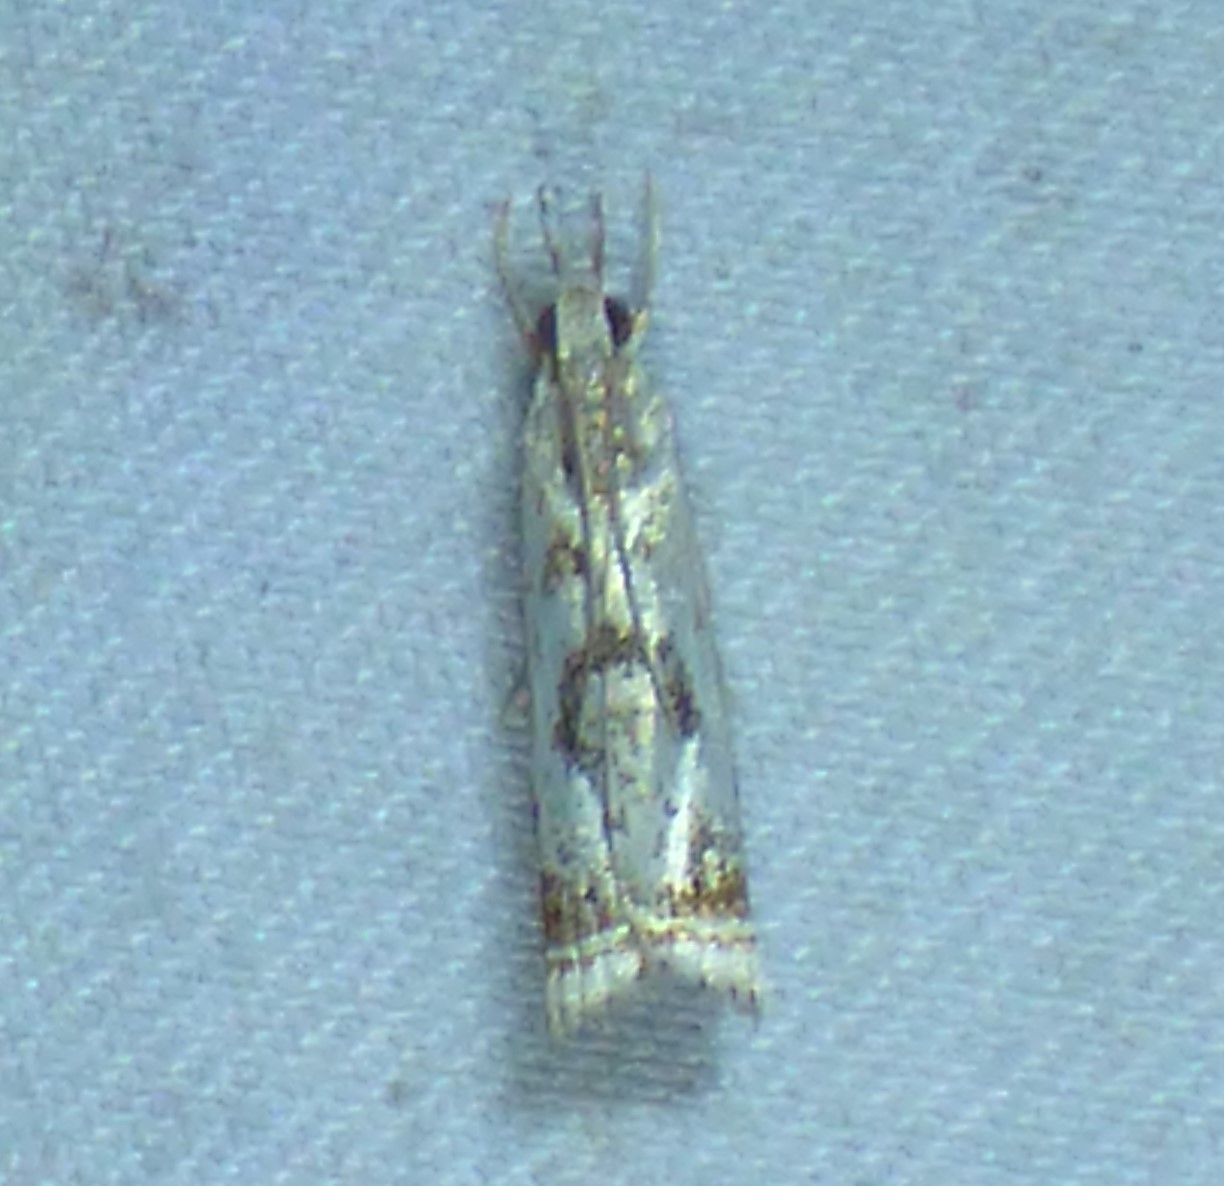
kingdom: Animalia
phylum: Arthropoda
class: Insecta
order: Lepidoptera
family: Crambidae
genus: Microcrambus
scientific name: Microcrambus elegans
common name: Elegant grass-veneer
